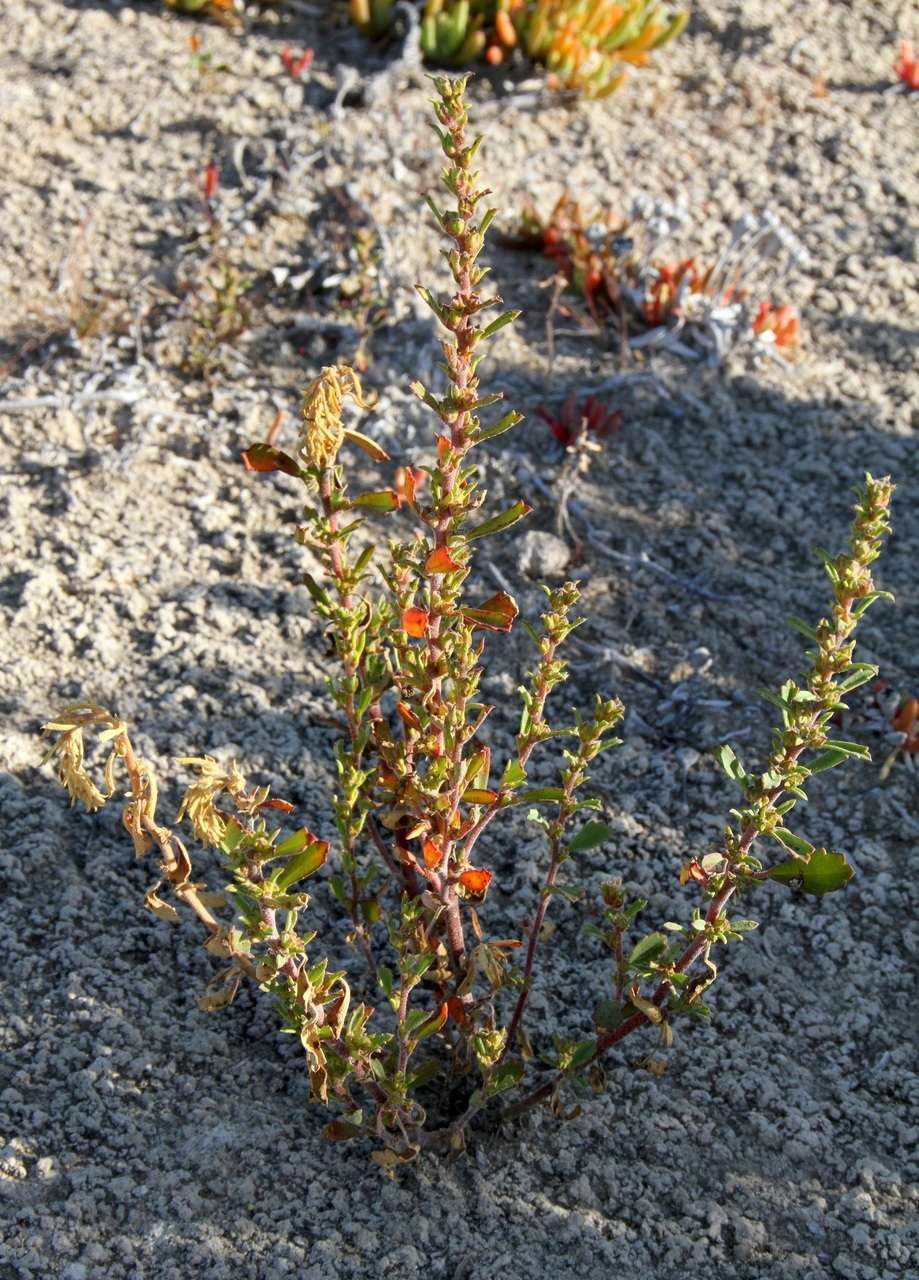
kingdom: Plantae
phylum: Tracheophyta
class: Magnoliopsida
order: Malvales
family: Malvaceae
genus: Lawrencia
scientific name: Lawrencia glomerata
